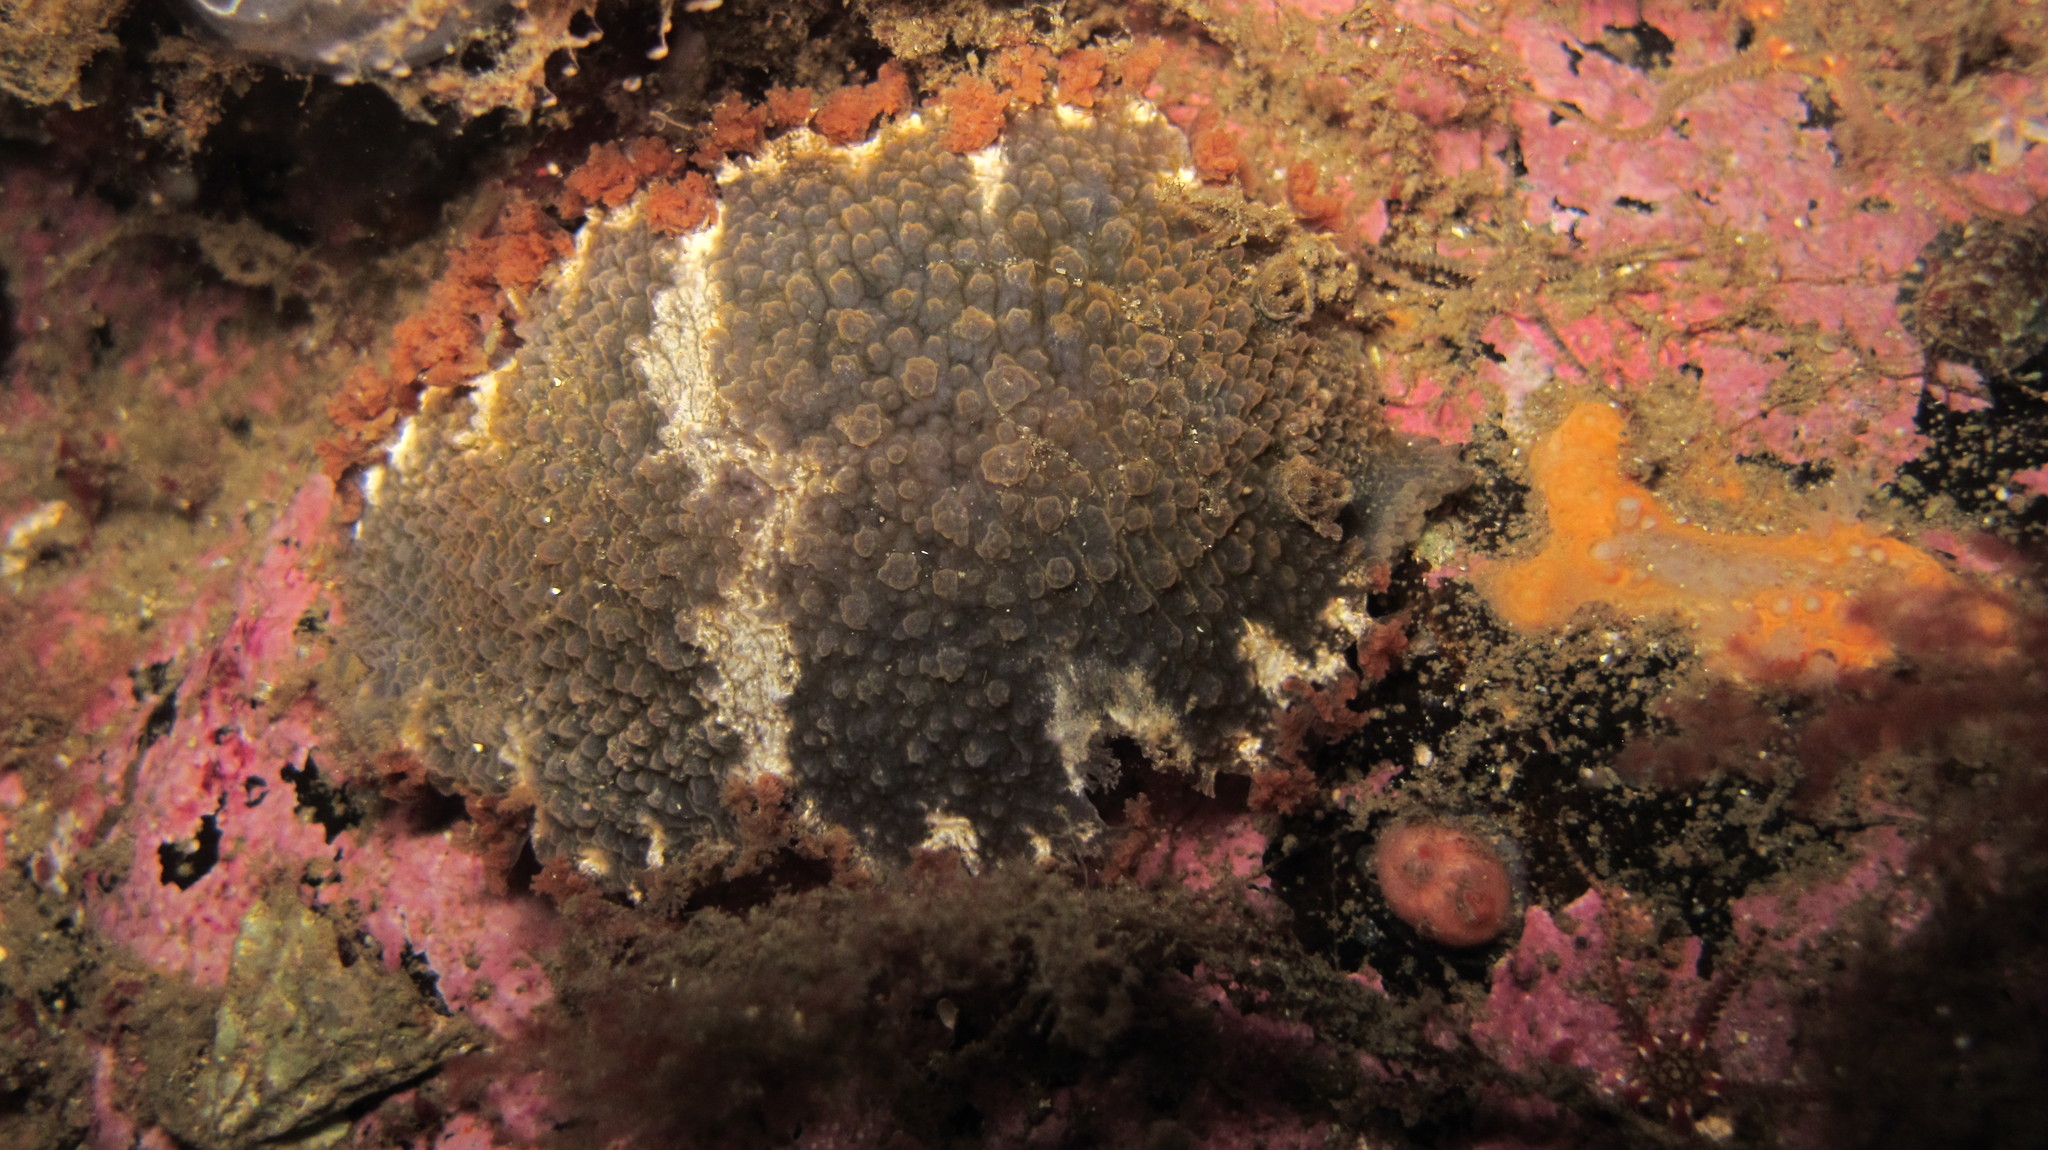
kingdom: Animalia
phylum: Mollusca
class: Gastropoda
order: Nudibranchia
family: Tritoniidae
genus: Tritonia
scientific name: Tritonia hombergii
